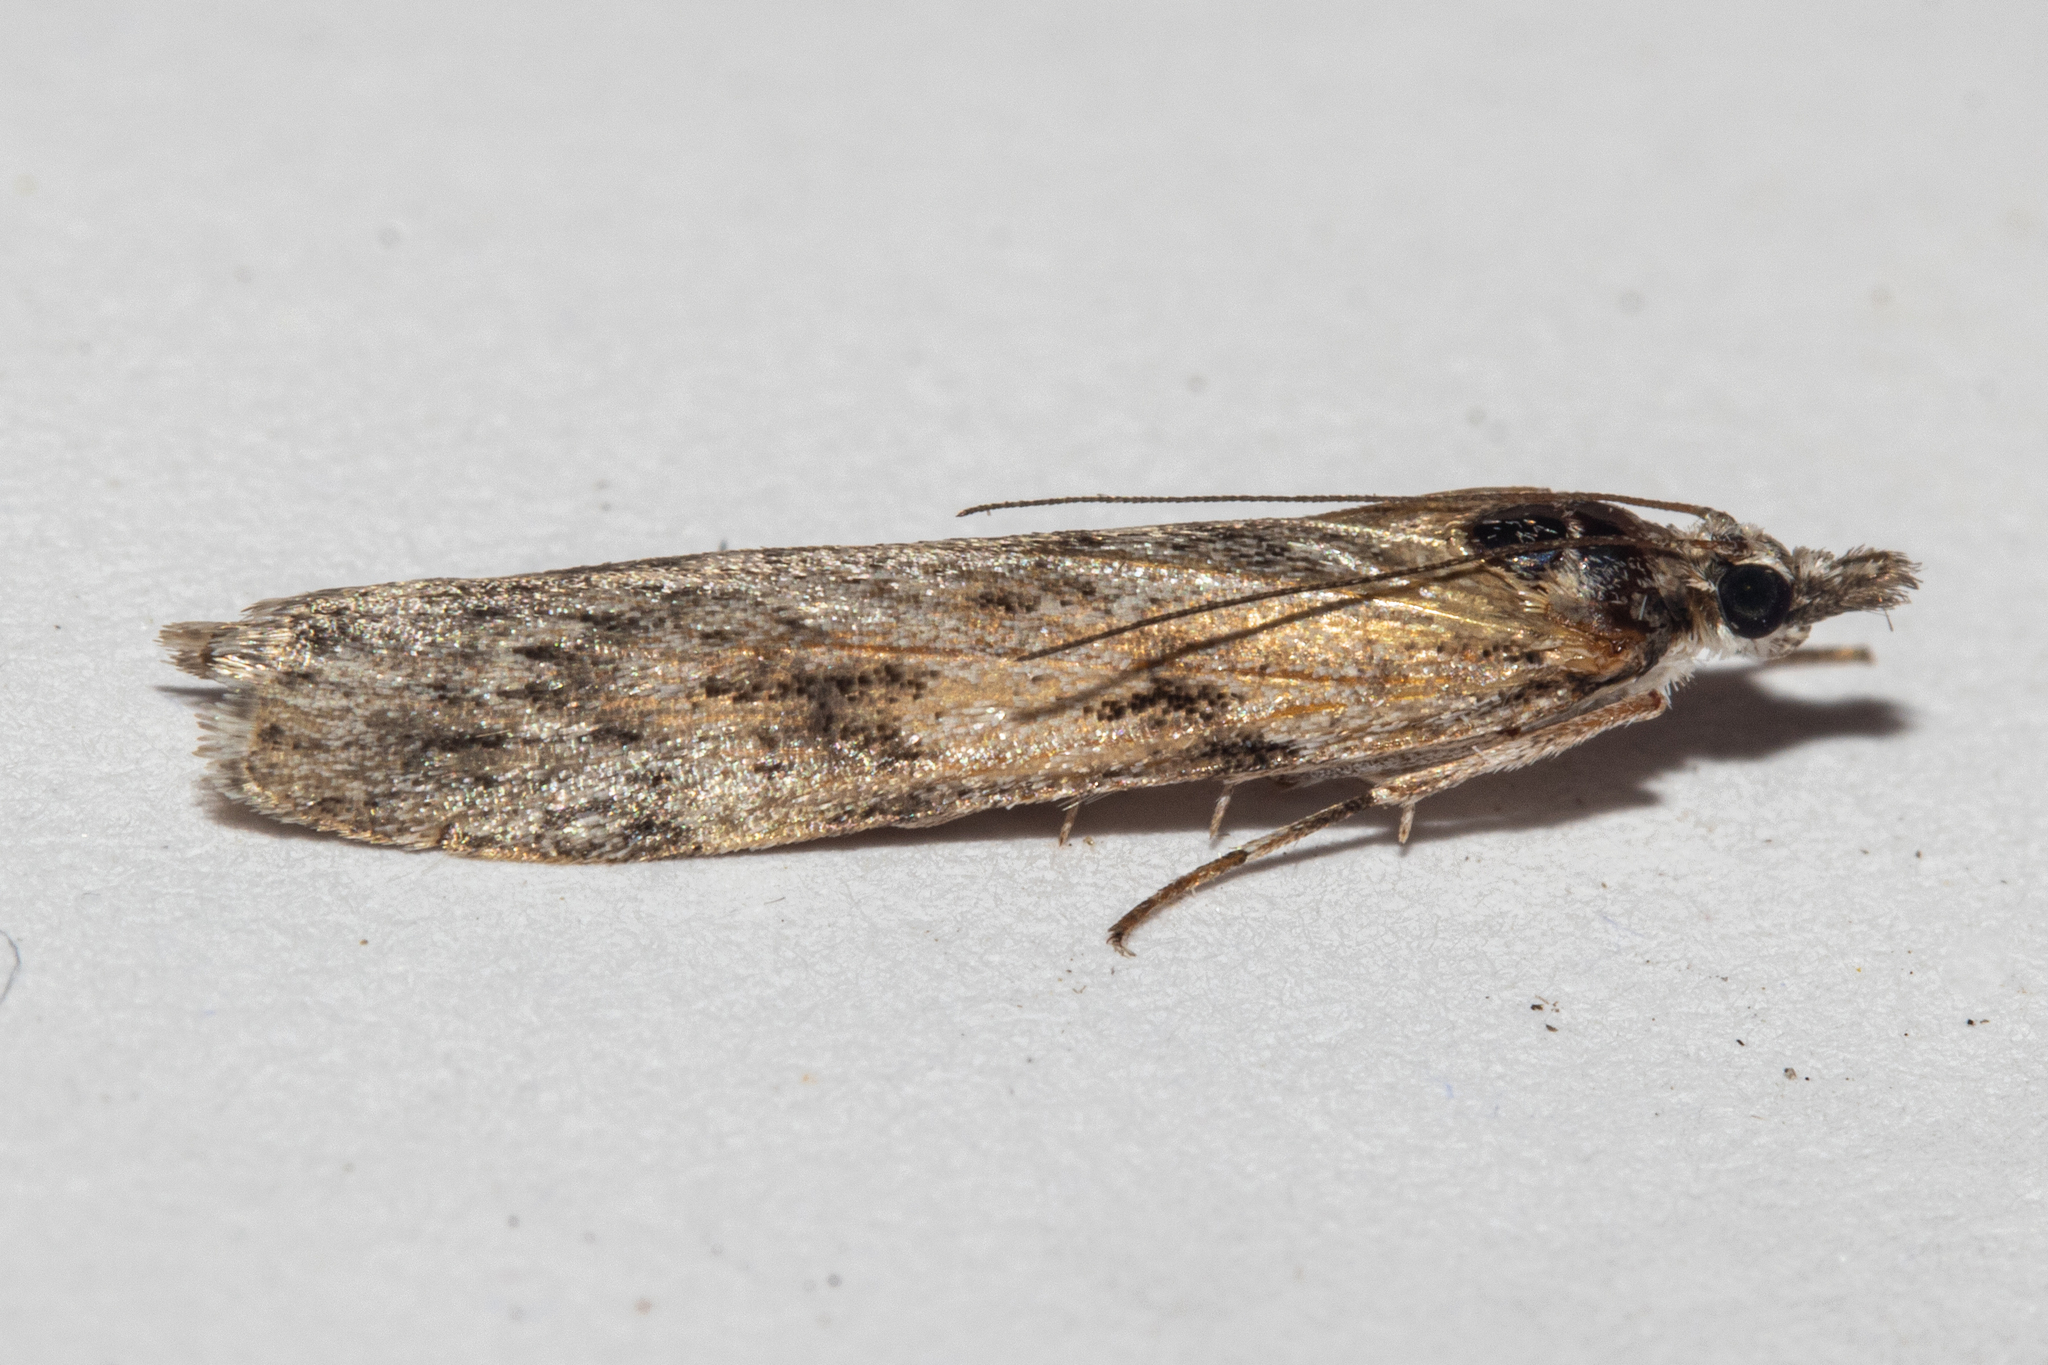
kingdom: Animalia
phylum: Arthropoda
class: Insecta
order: Lepidoptera
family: Crambidae
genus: Scoparia
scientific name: Scoparia halopis
